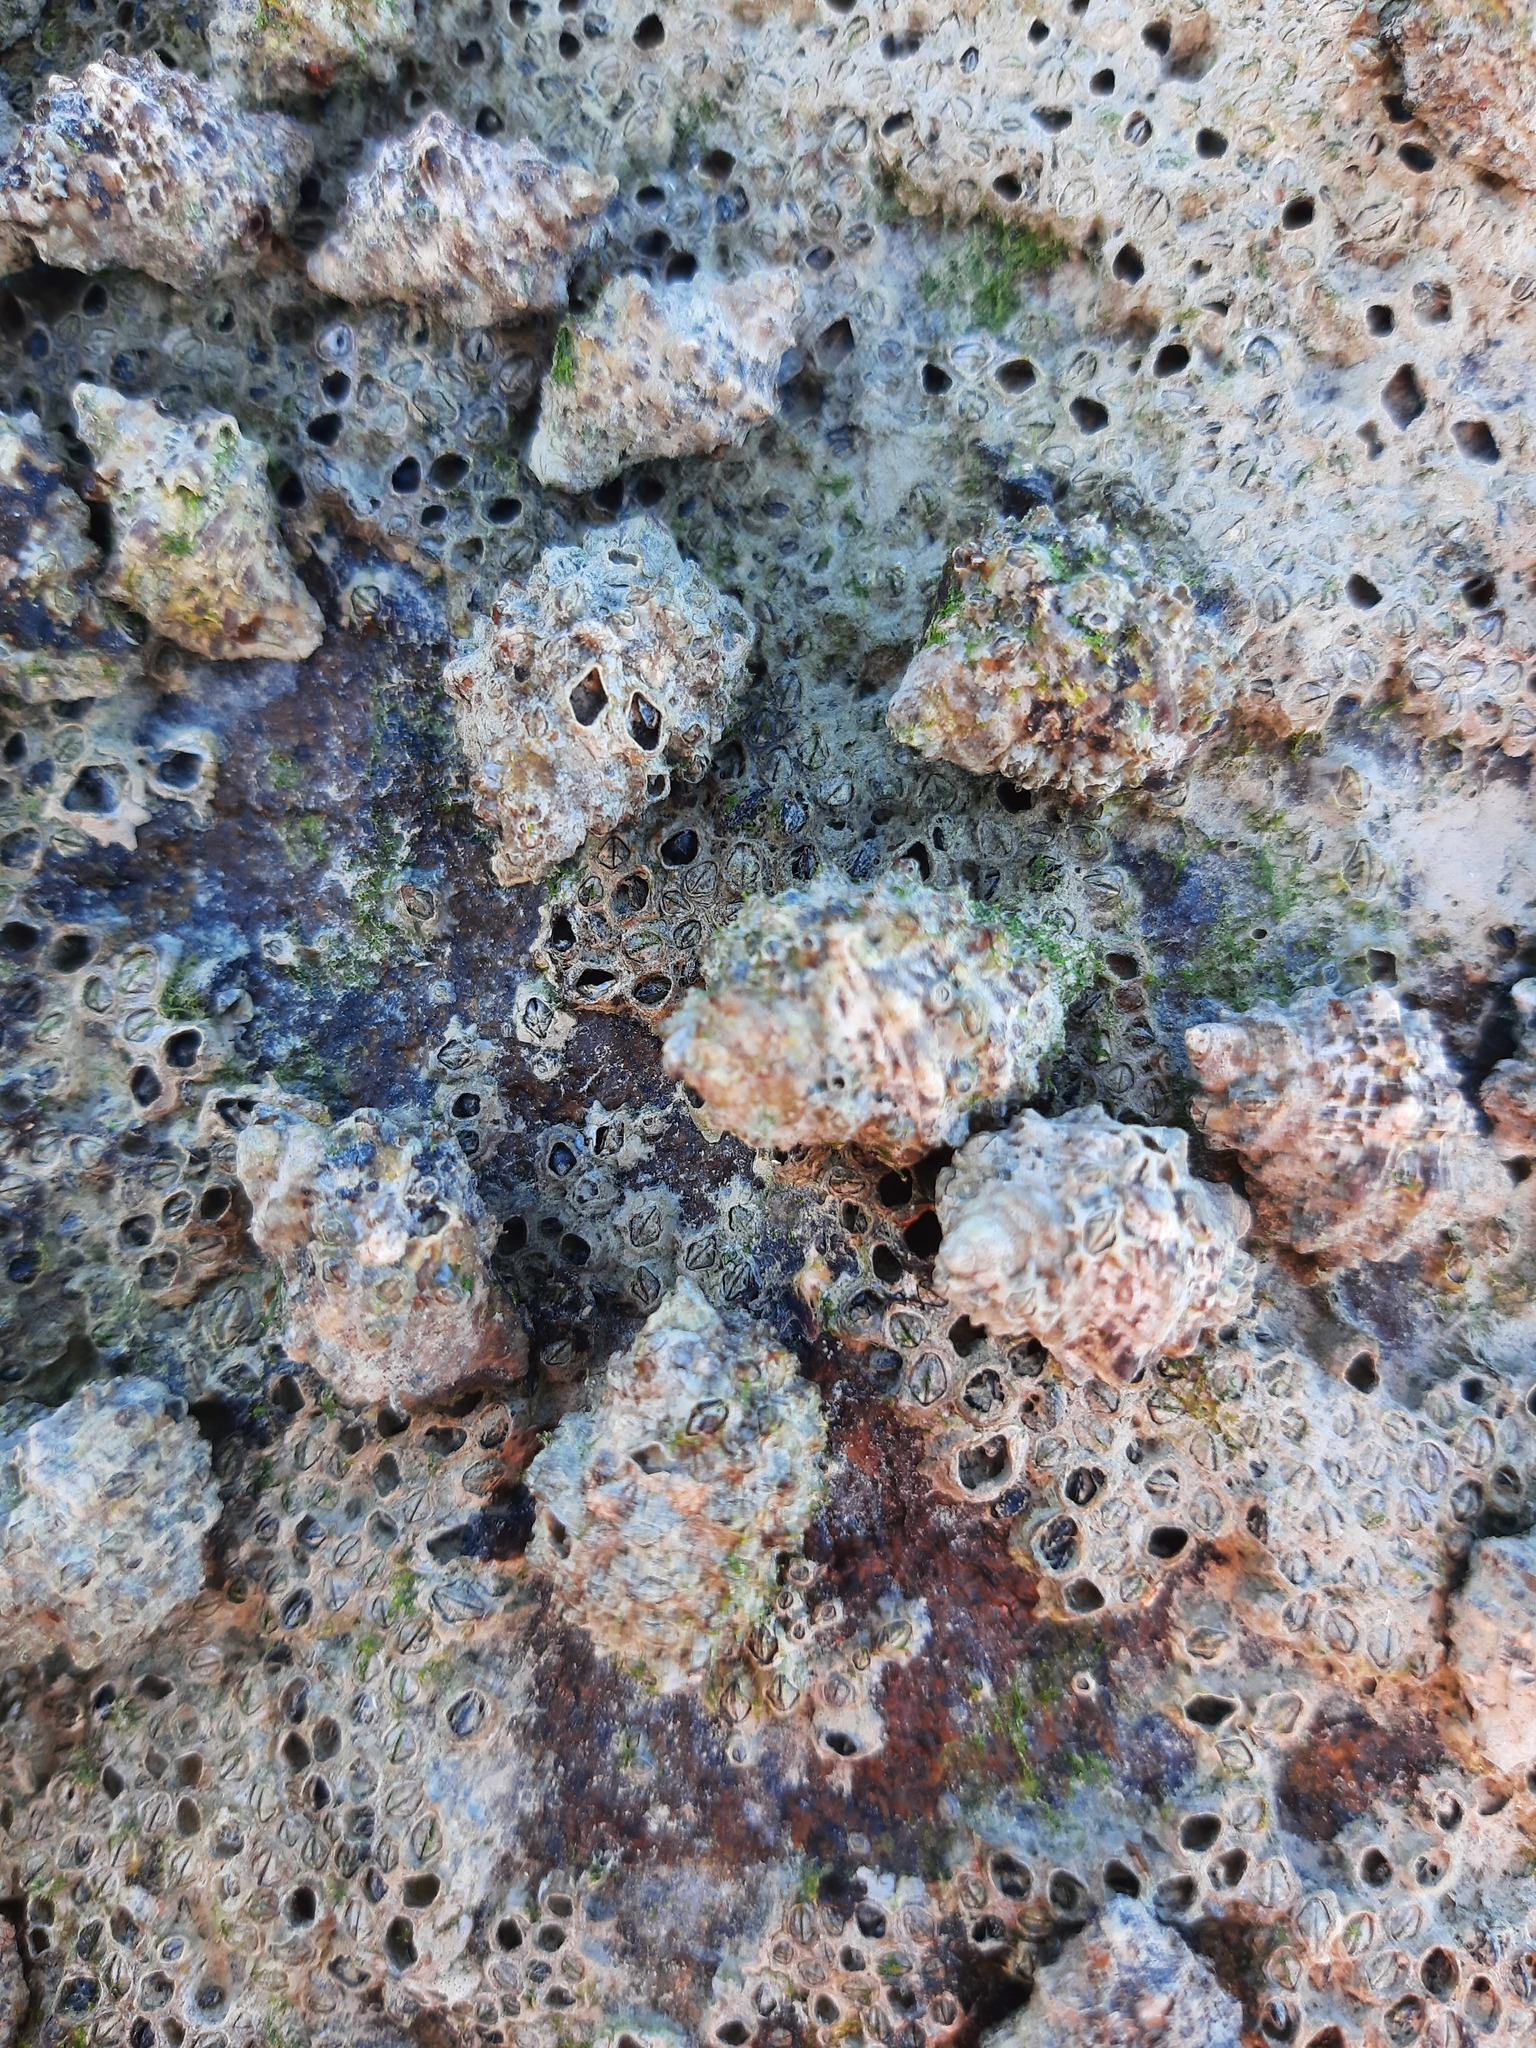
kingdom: Animalia
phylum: Mollusca
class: Gastropoda
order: Neogastropoda
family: Muricidae
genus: Haustrum
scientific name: Haustrum scobina
